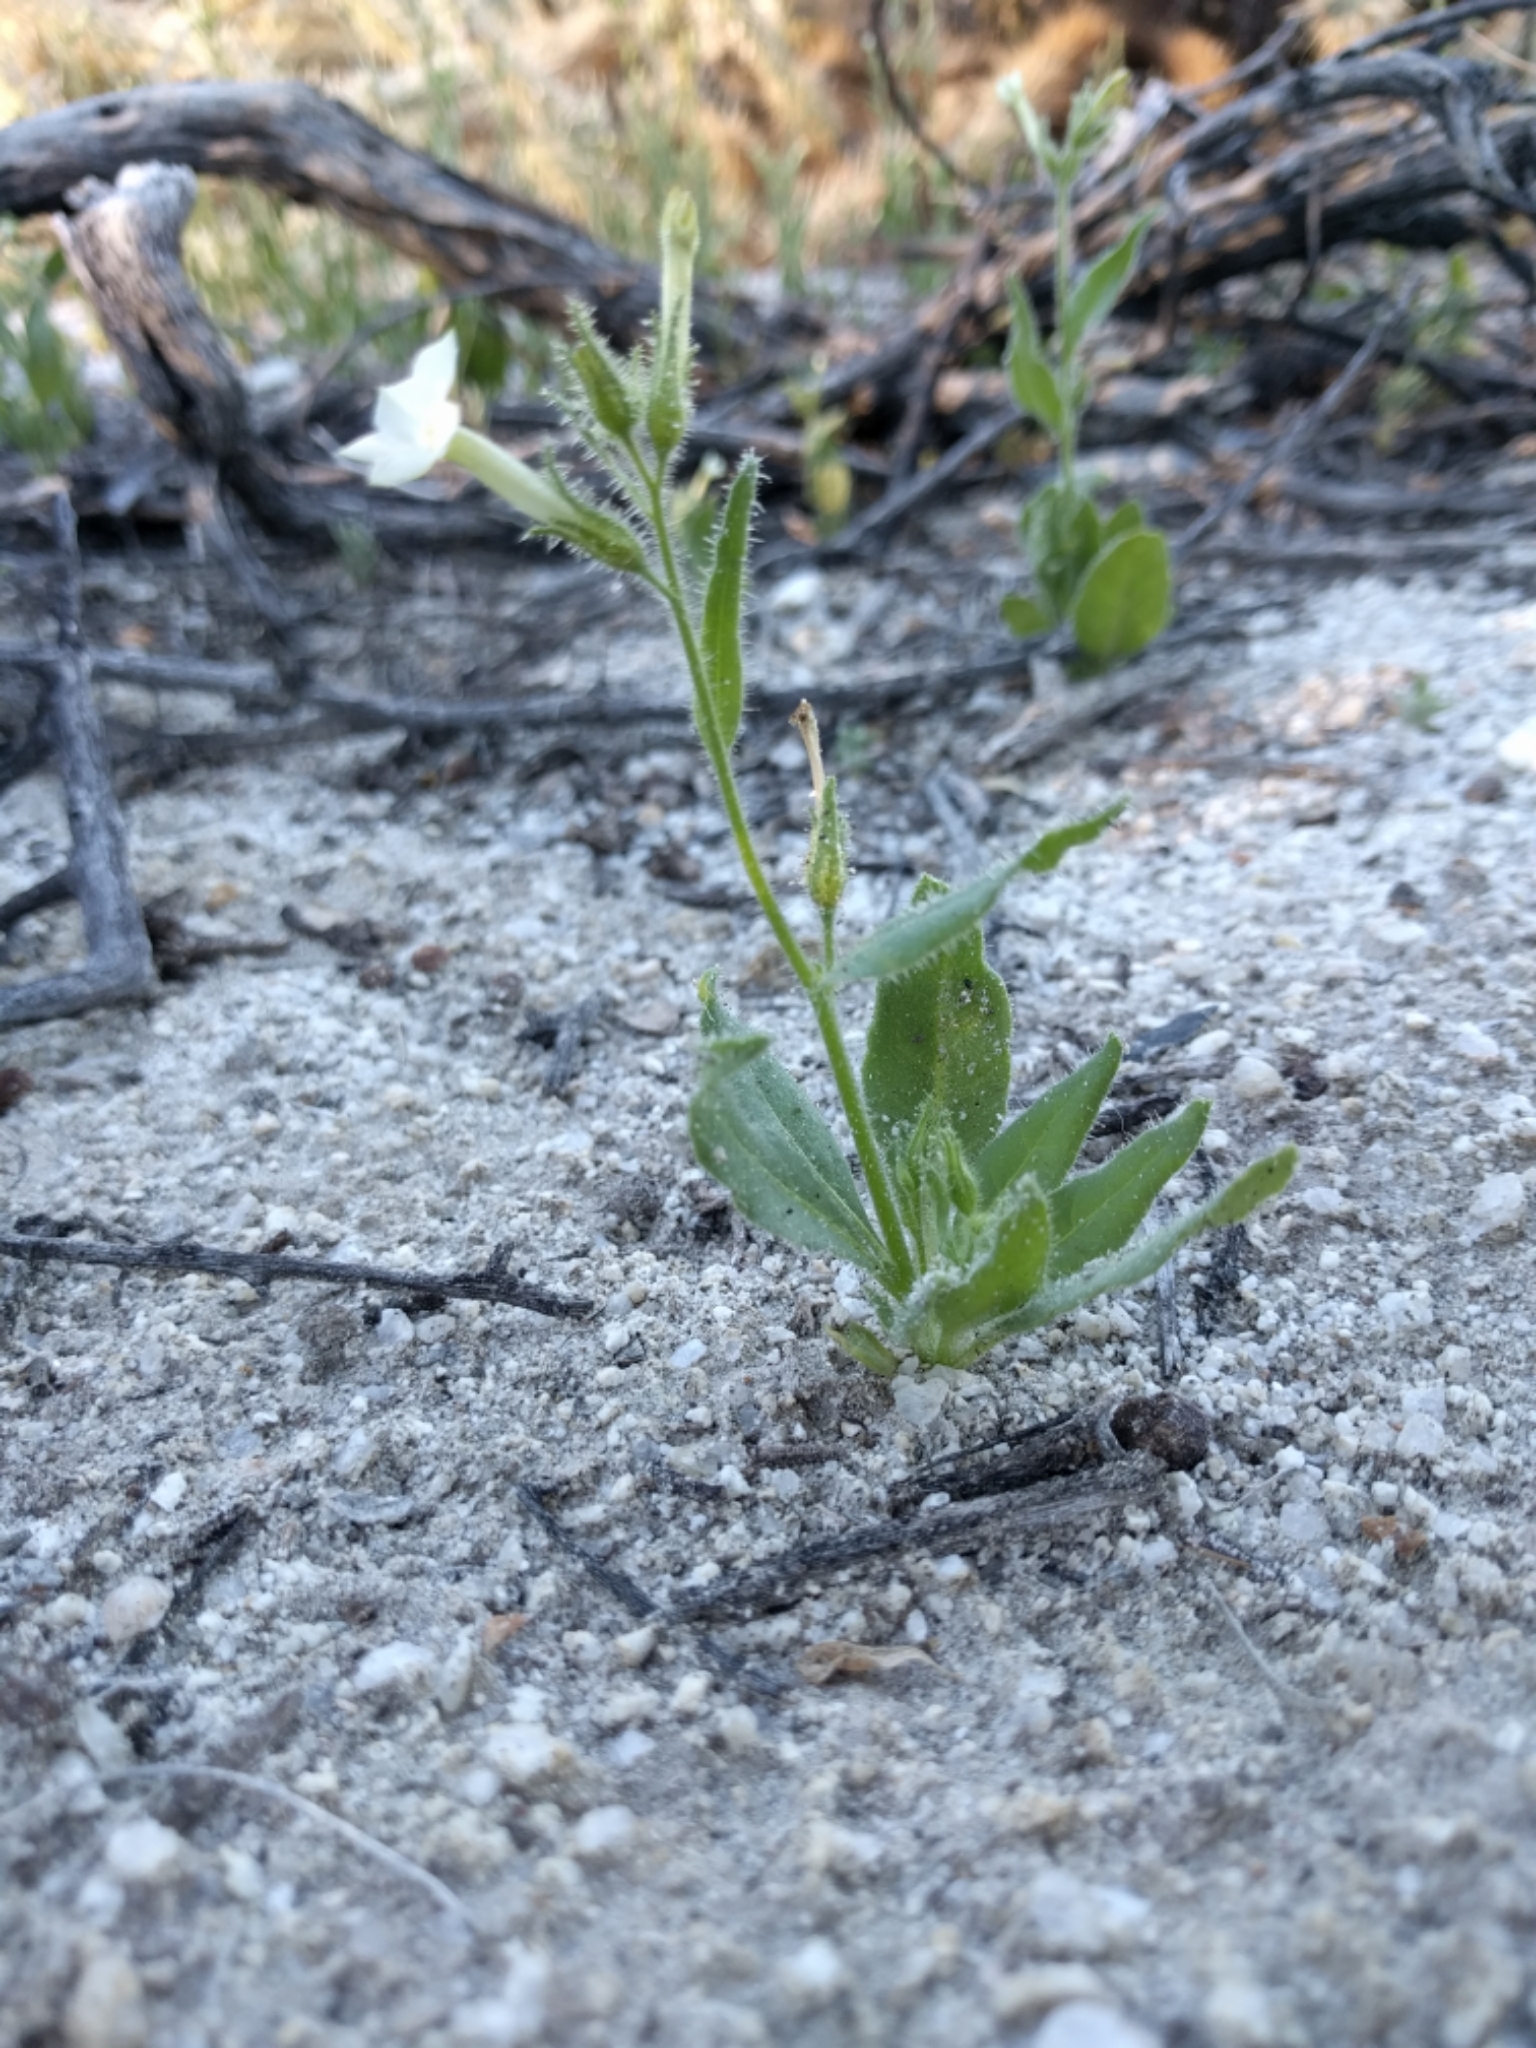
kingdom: Plantae
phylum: Tracheophyta
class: Magnoliopsida
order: Solanales
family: Solanaceae
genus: Nicotiana
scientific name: Nicotiana clevelandii
